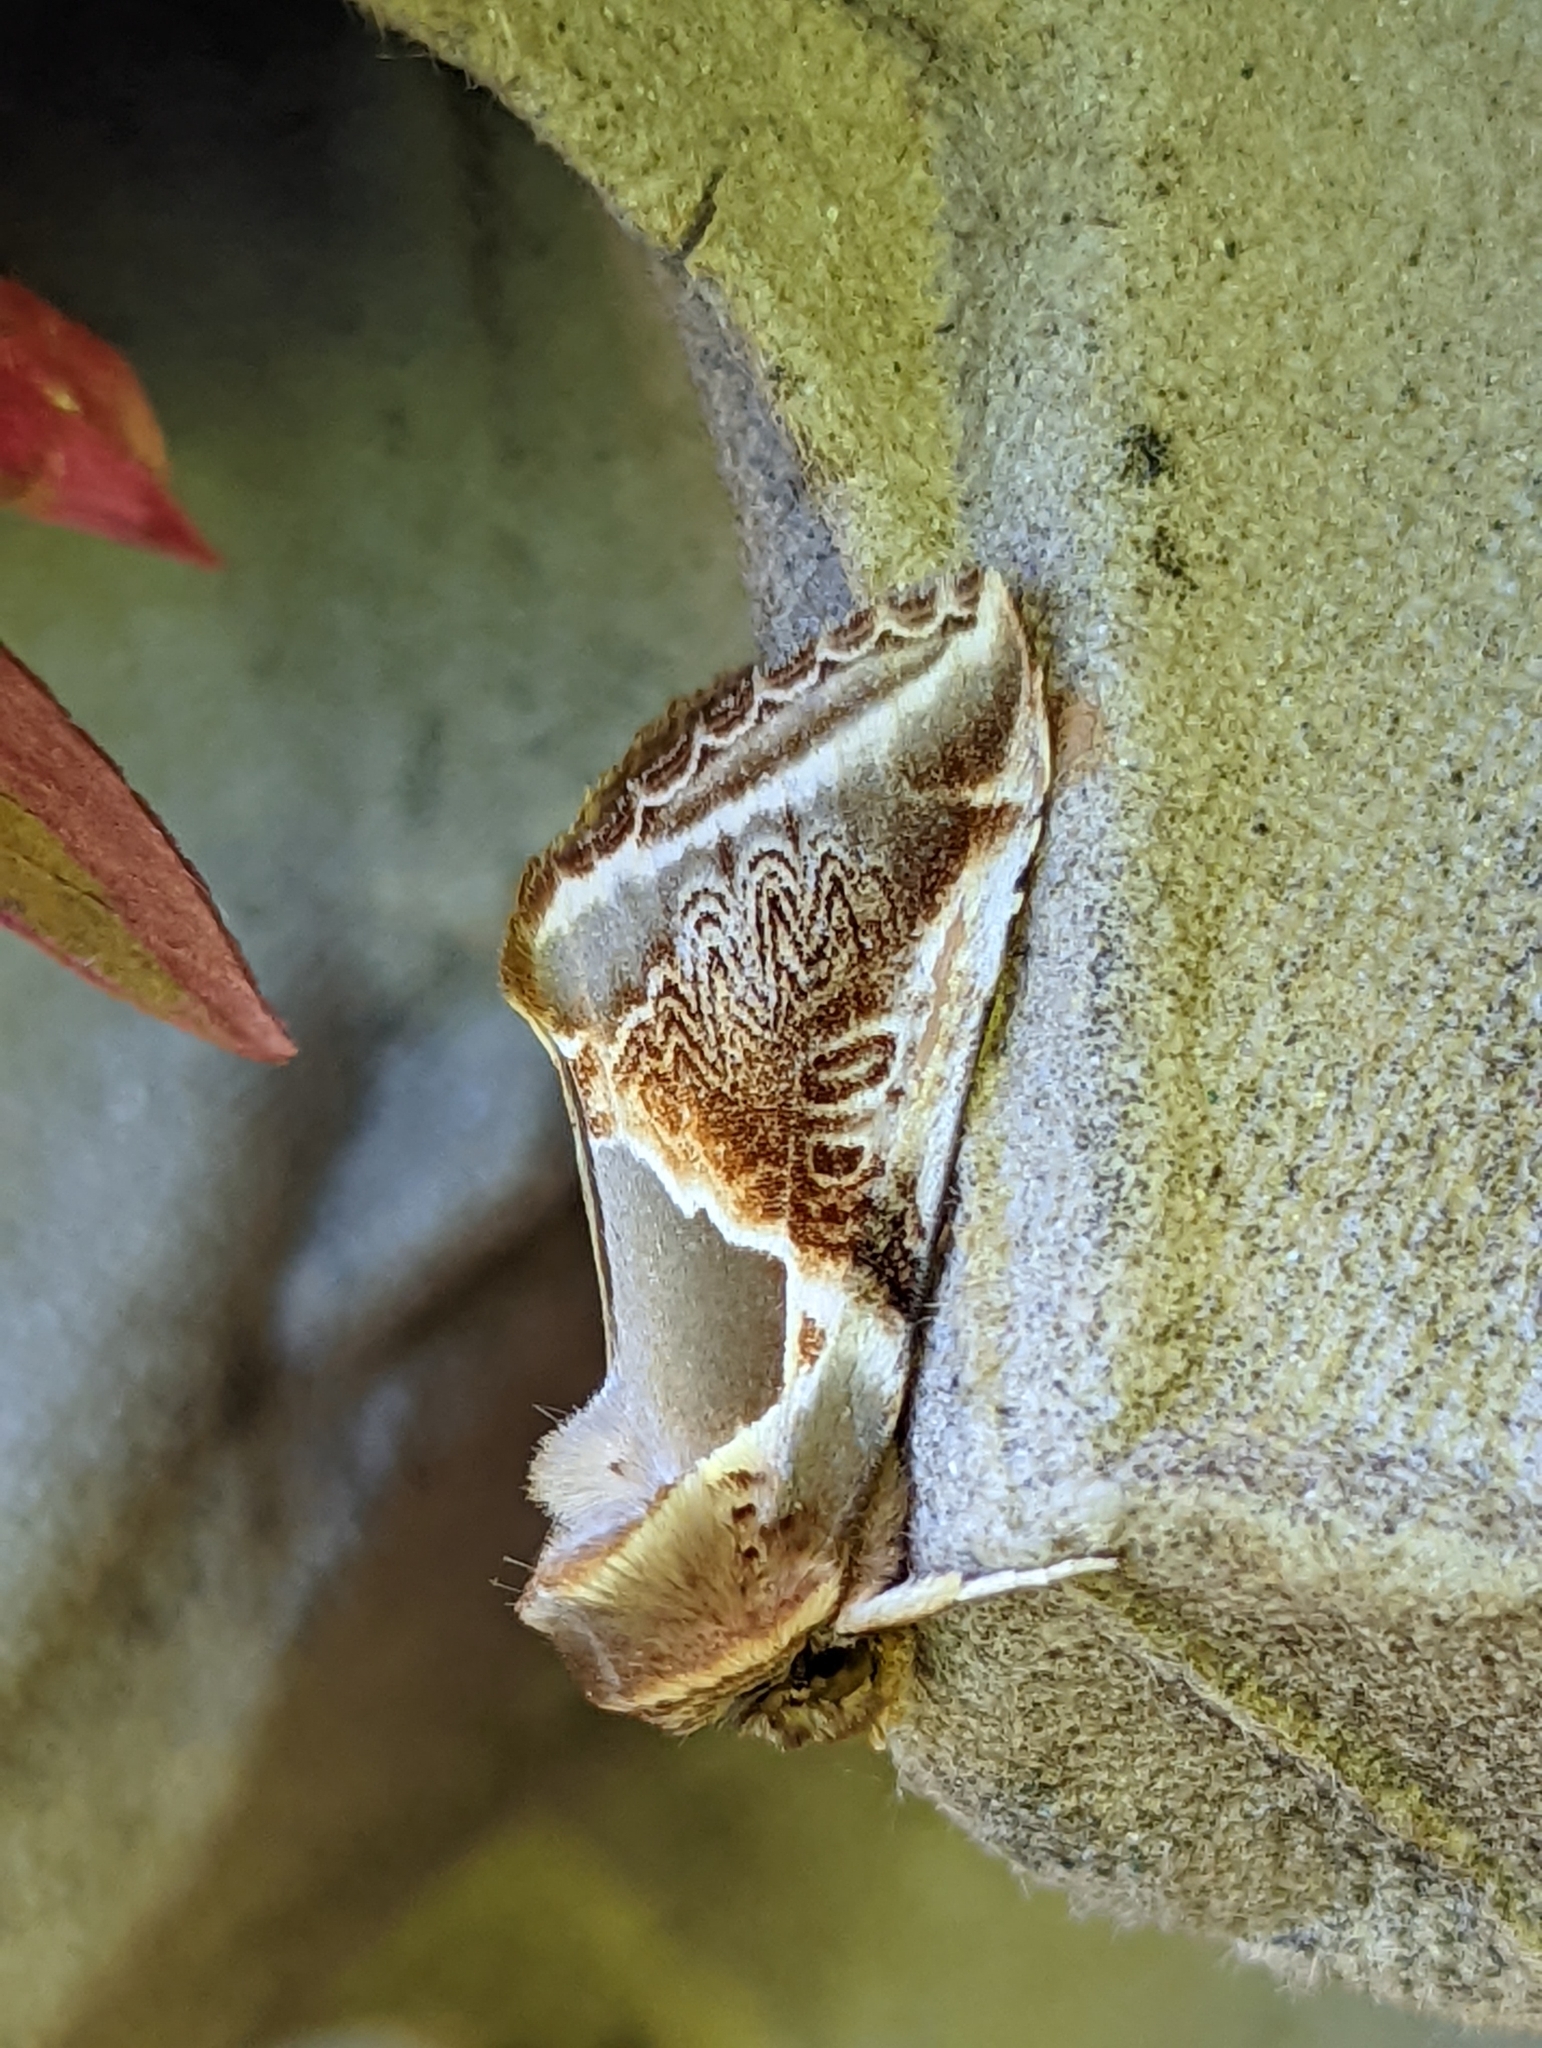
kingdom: Animalia
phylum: Arthropoda
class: Insecta
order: Lepidoptera
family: Drepanidae
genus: Habrosyne
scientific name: Habrosyne pyritoides
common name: Buff arches
